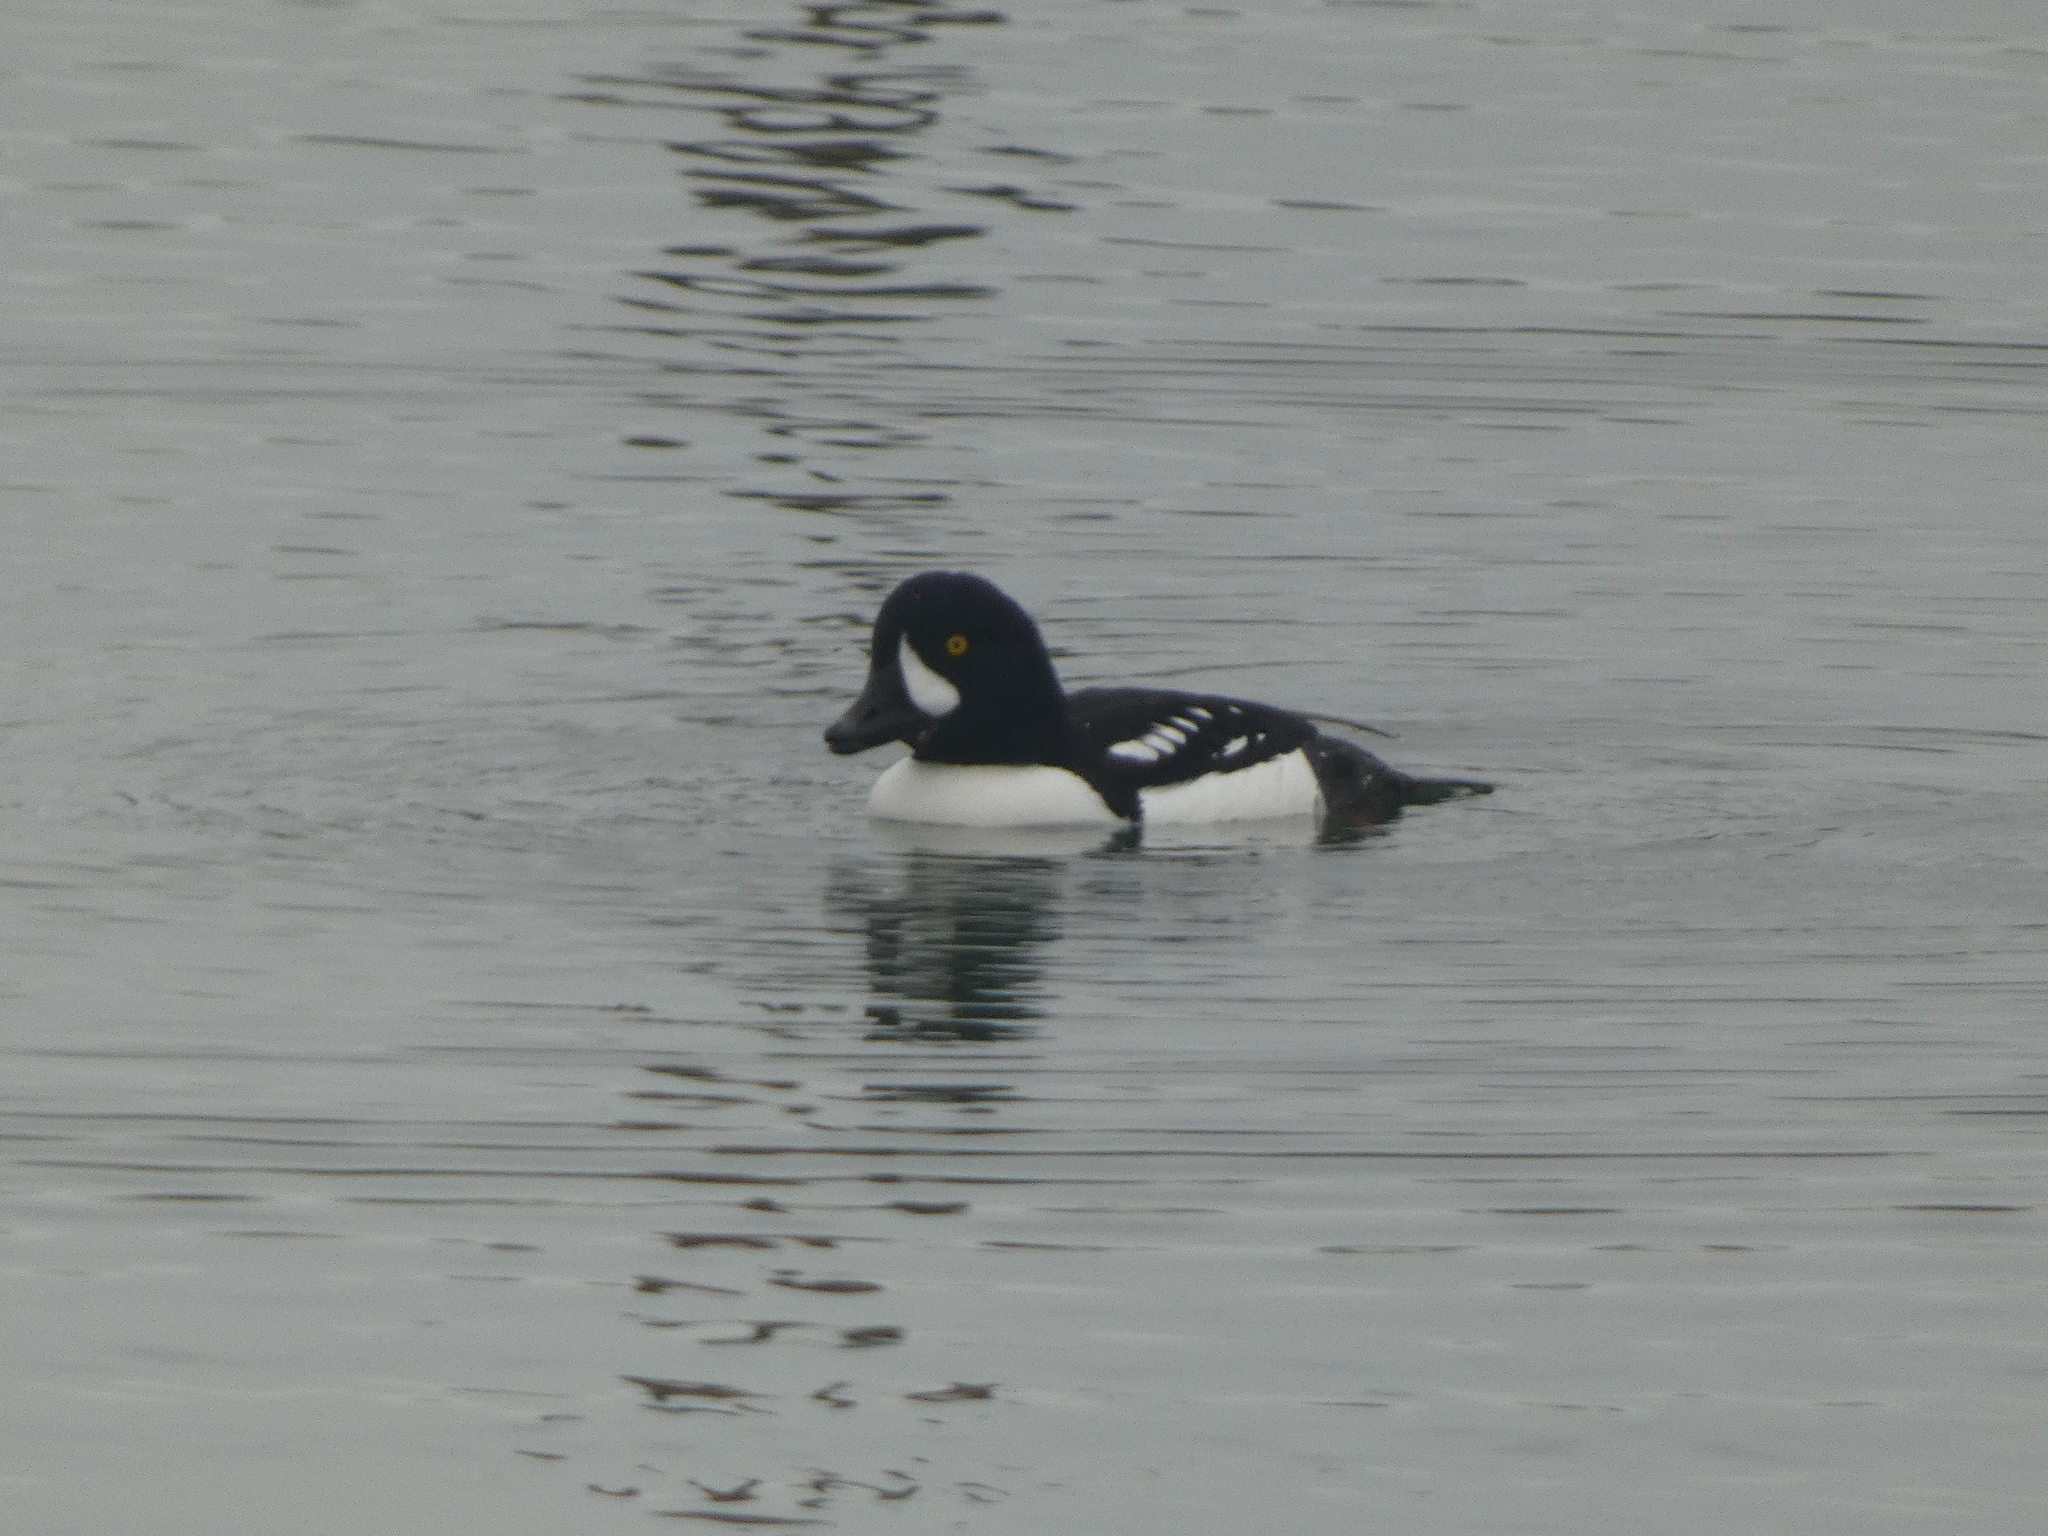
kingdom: Animalia
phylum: Chordata
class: Aves
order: Anseriformes
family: Anatidae
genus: Bucephala
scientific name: Bucephala islandica
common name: Barrow's goldeneye
